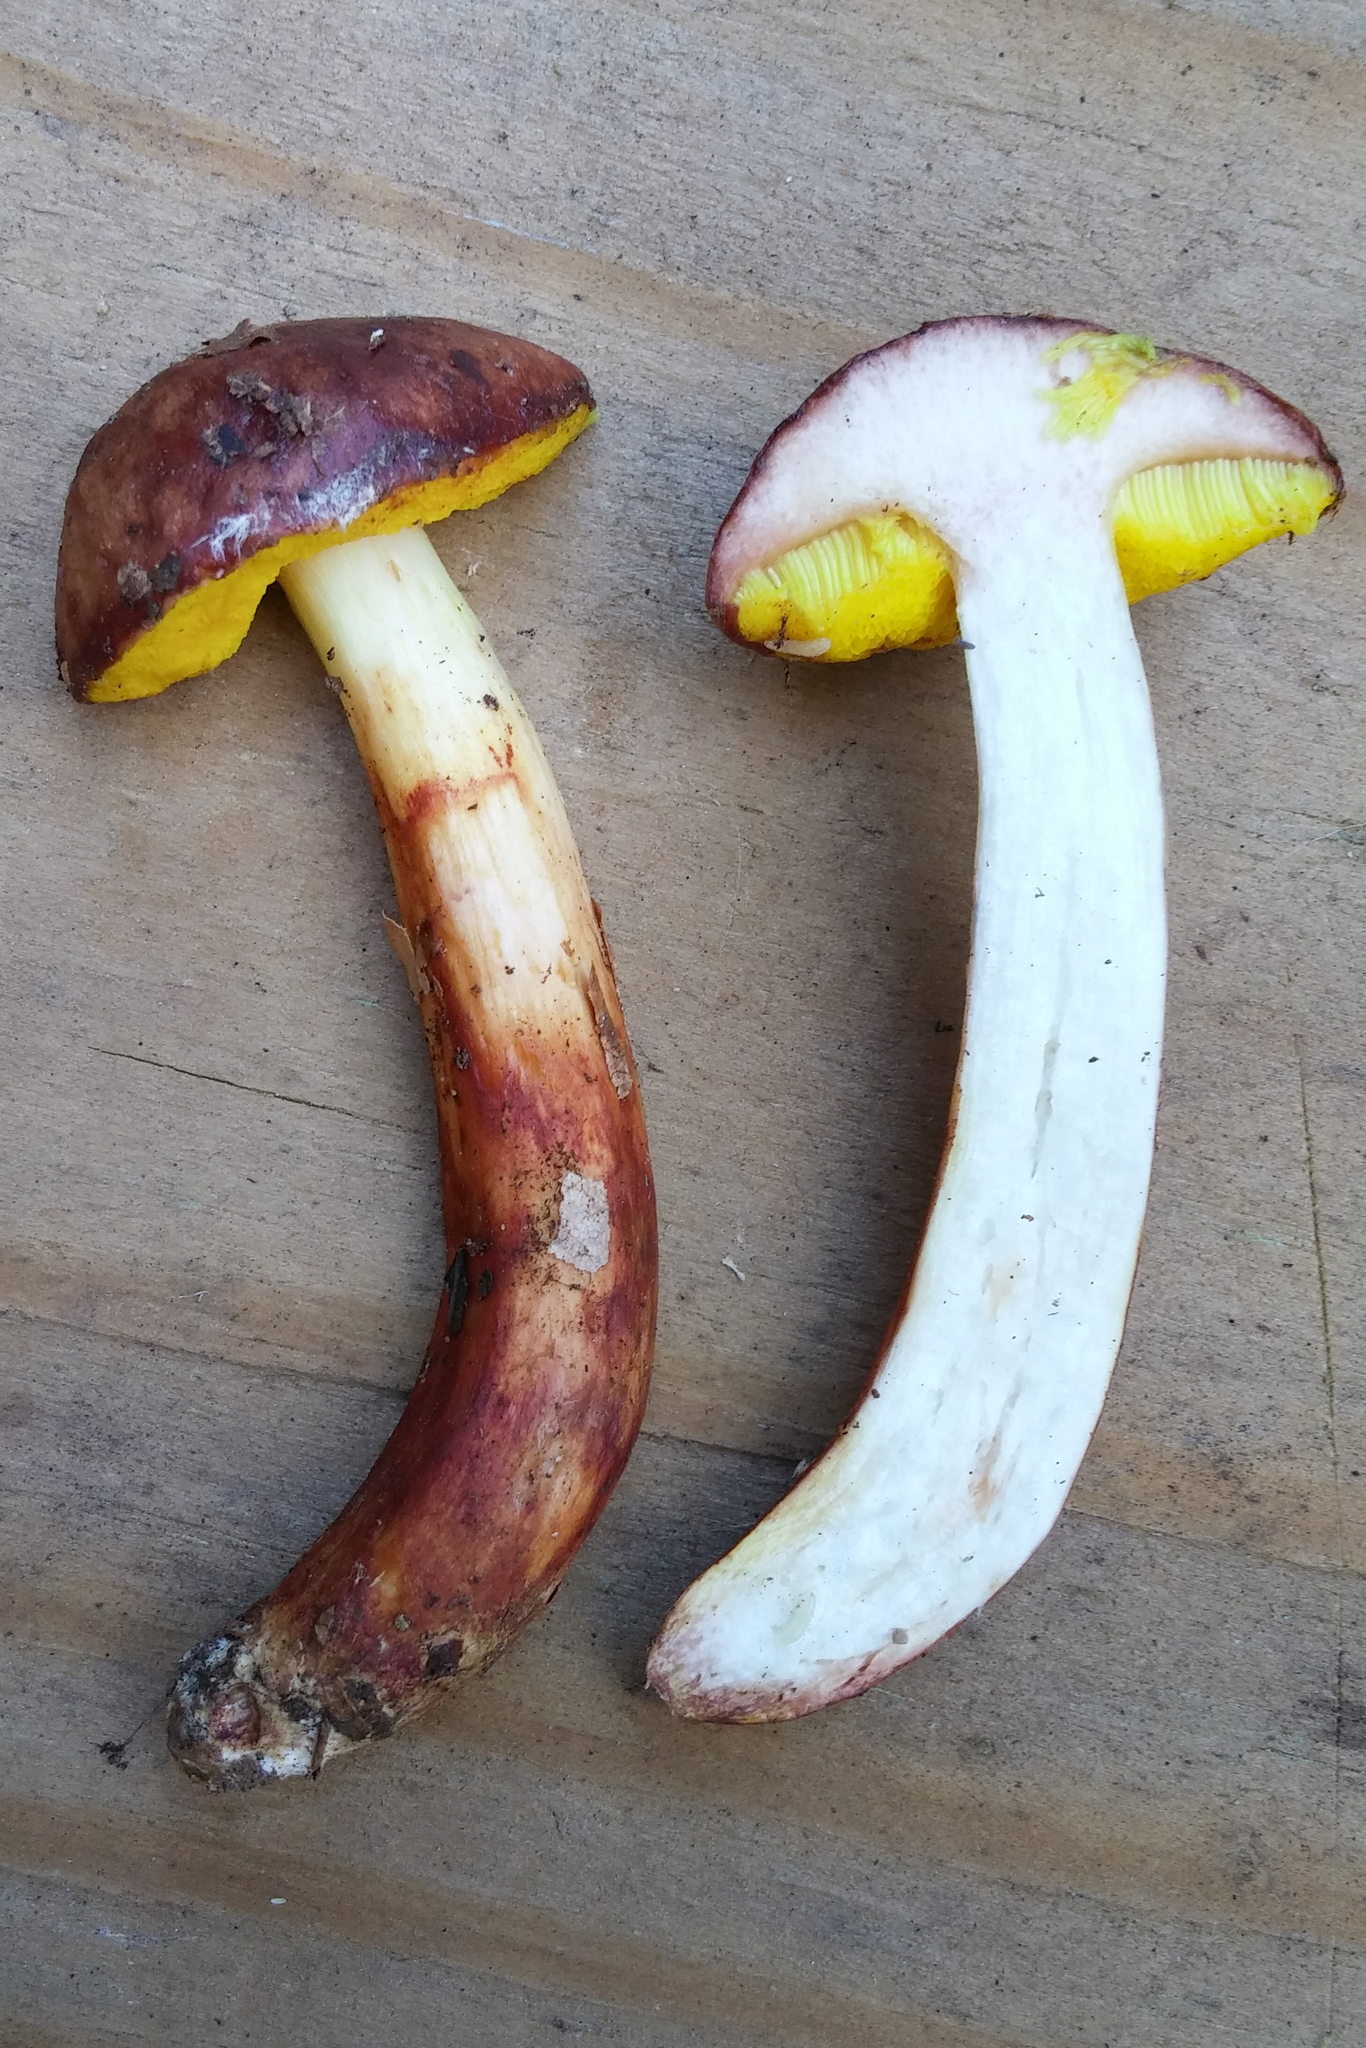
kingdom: Fungi
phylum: Basidiomycota
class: Agaricomycetes
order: Boletales
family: Boletaceae
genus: Aureoboletus
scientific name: Aureoboletus auriporus
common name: Sour gold-pored bolete
